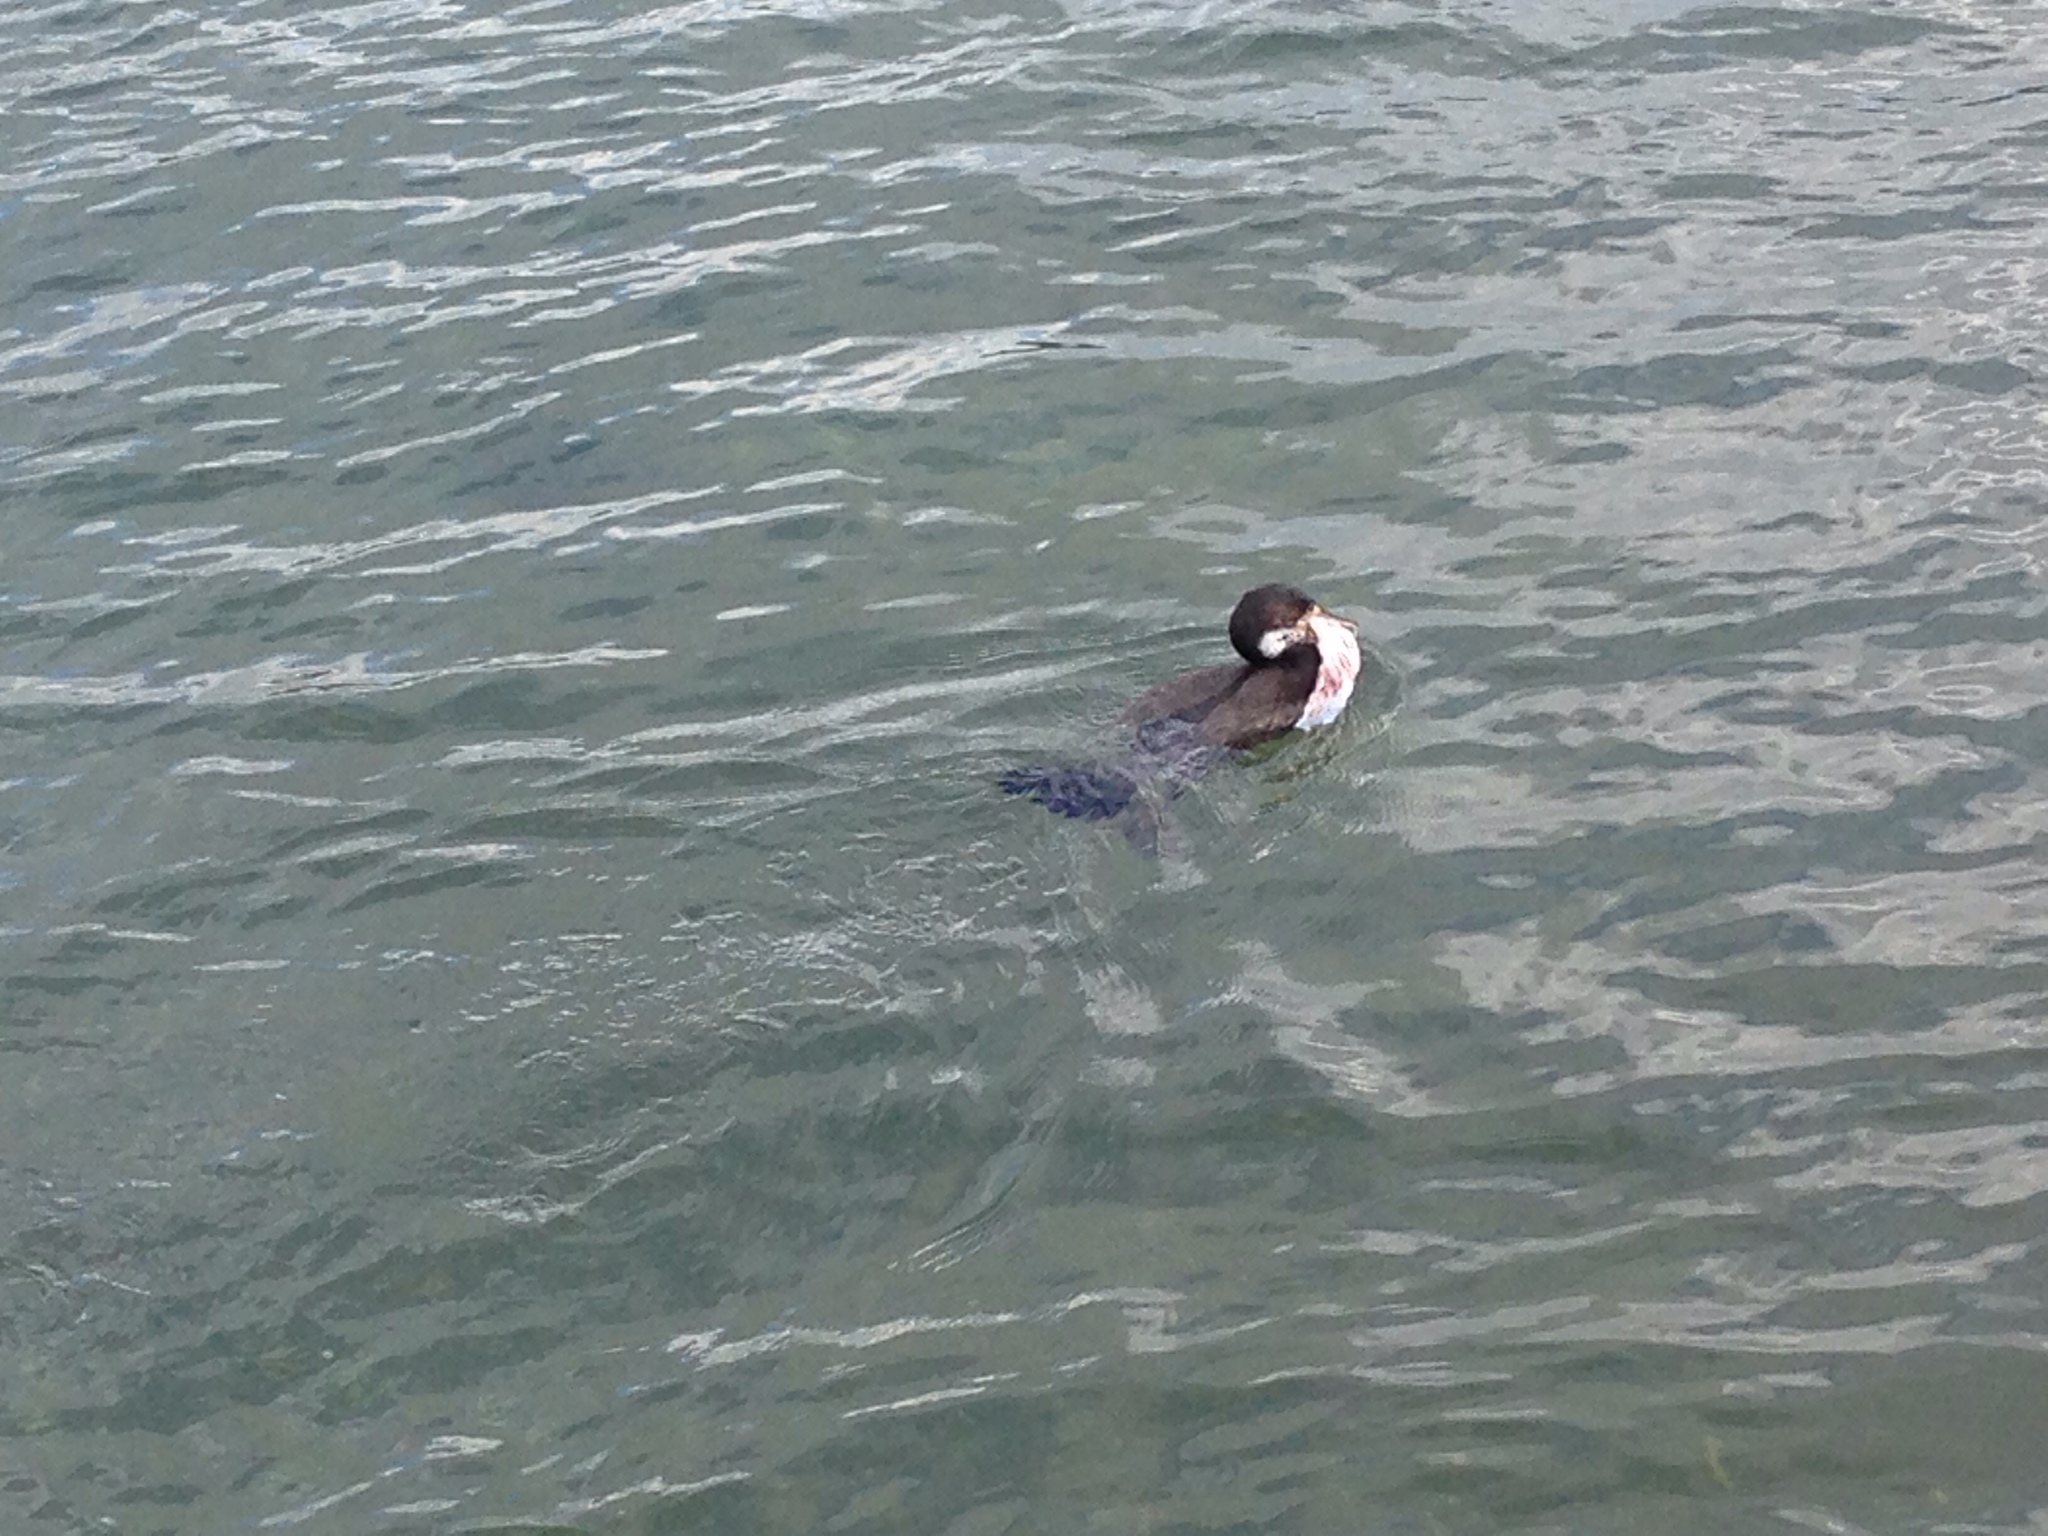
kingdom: Animalia
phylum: Chordata
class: Aves
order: Suliformes
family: Phalacrocoracidae
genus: Phalacrocorax
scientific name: Phalacrocorax varius
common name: Pied cormorant
